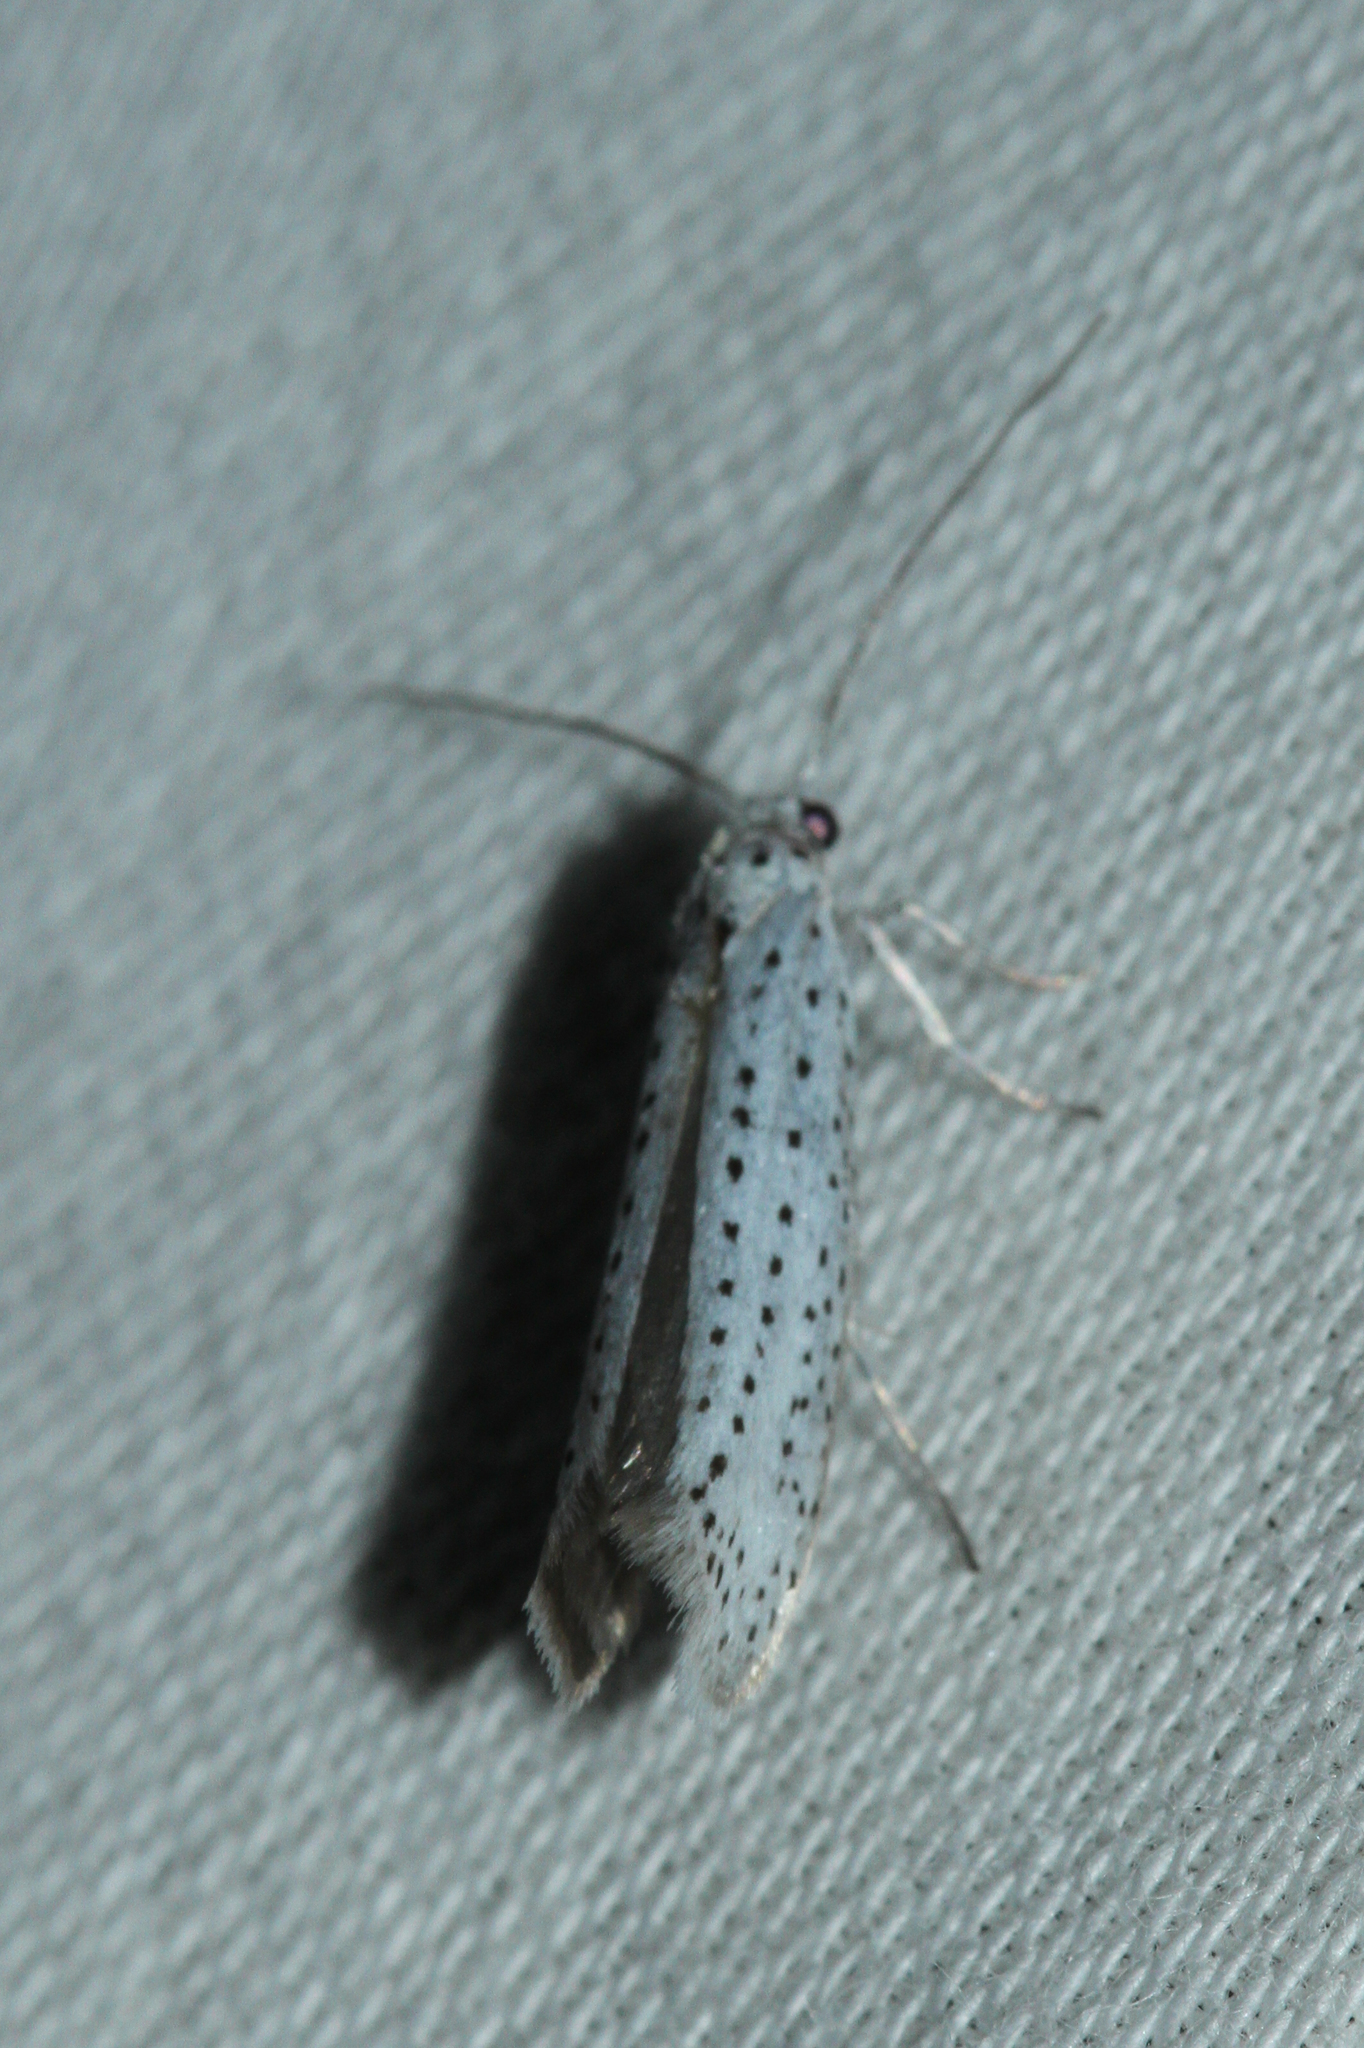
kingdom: Animalia
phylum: Arthropoda
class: Insecta
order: Lepidoptera
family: Yponomeutidae
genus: Yponomeuta
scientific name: Yponomeuta evonymella
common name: Bird-cherry ermine
